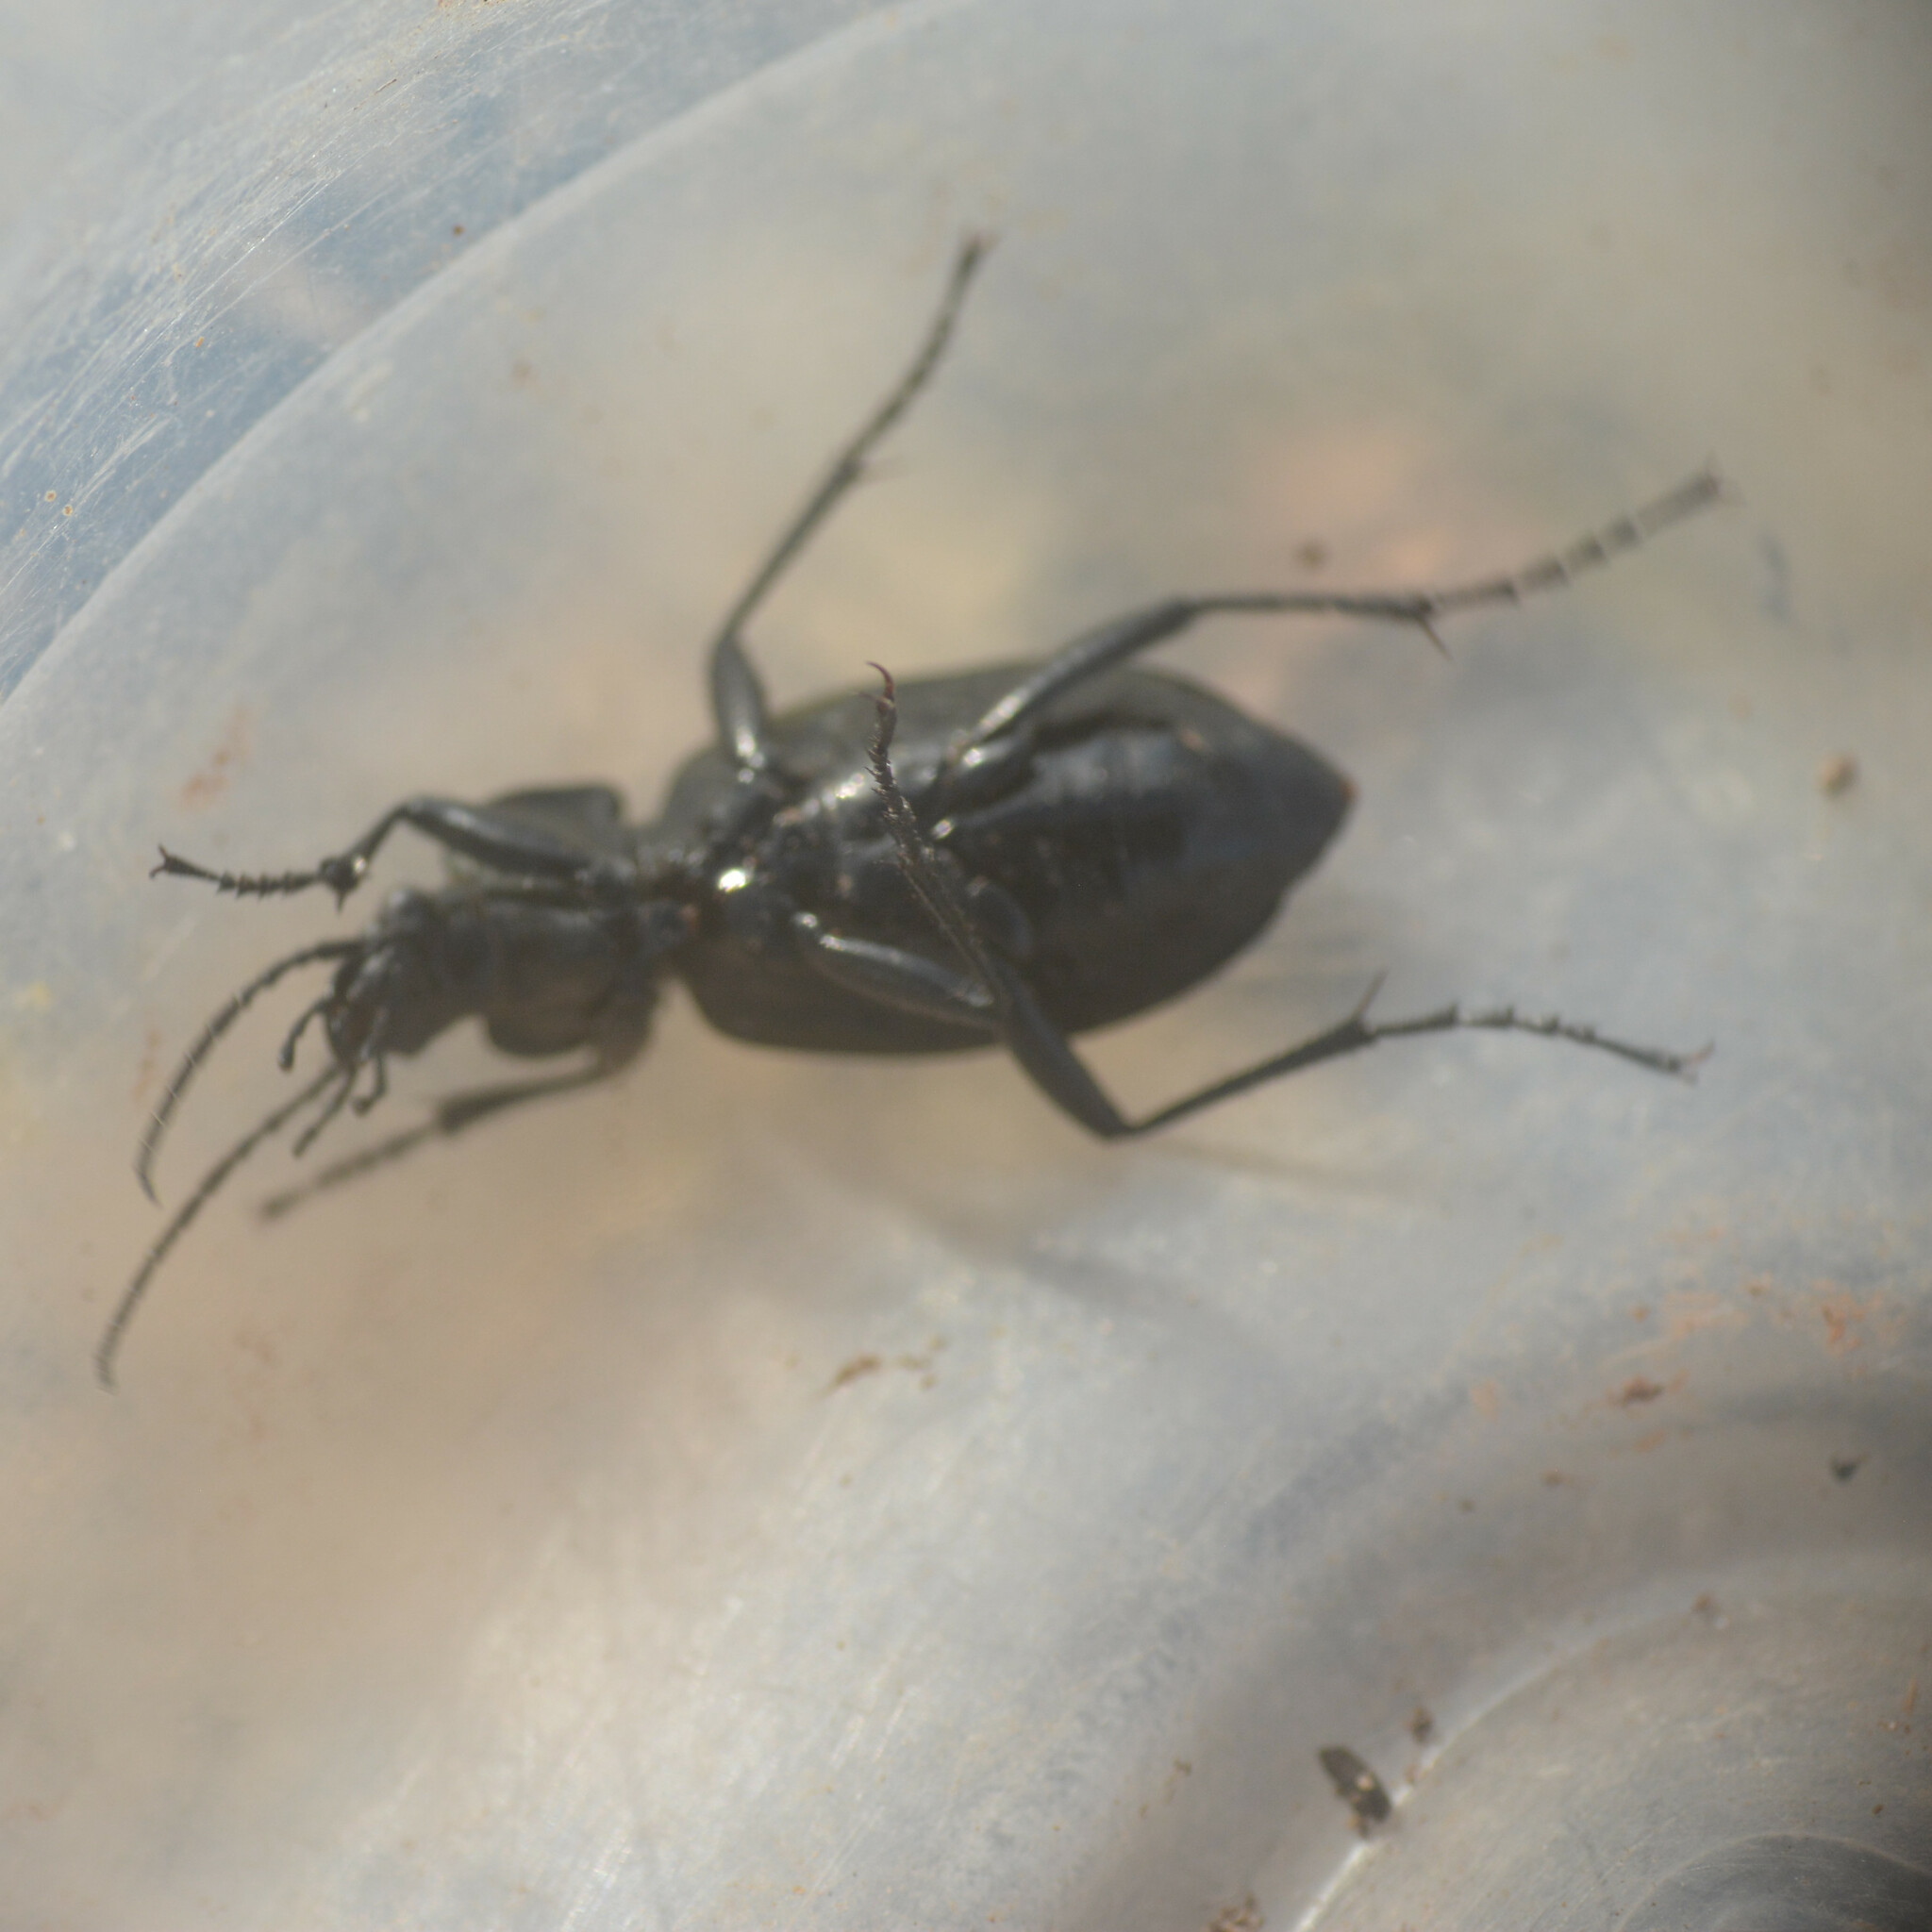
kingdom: Animalia
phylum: Arthropoda
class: Insecta
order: Coleoptera
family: Carabidae
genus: Carabus
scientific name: Carabus granulatus
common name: Granulate ground beetle
